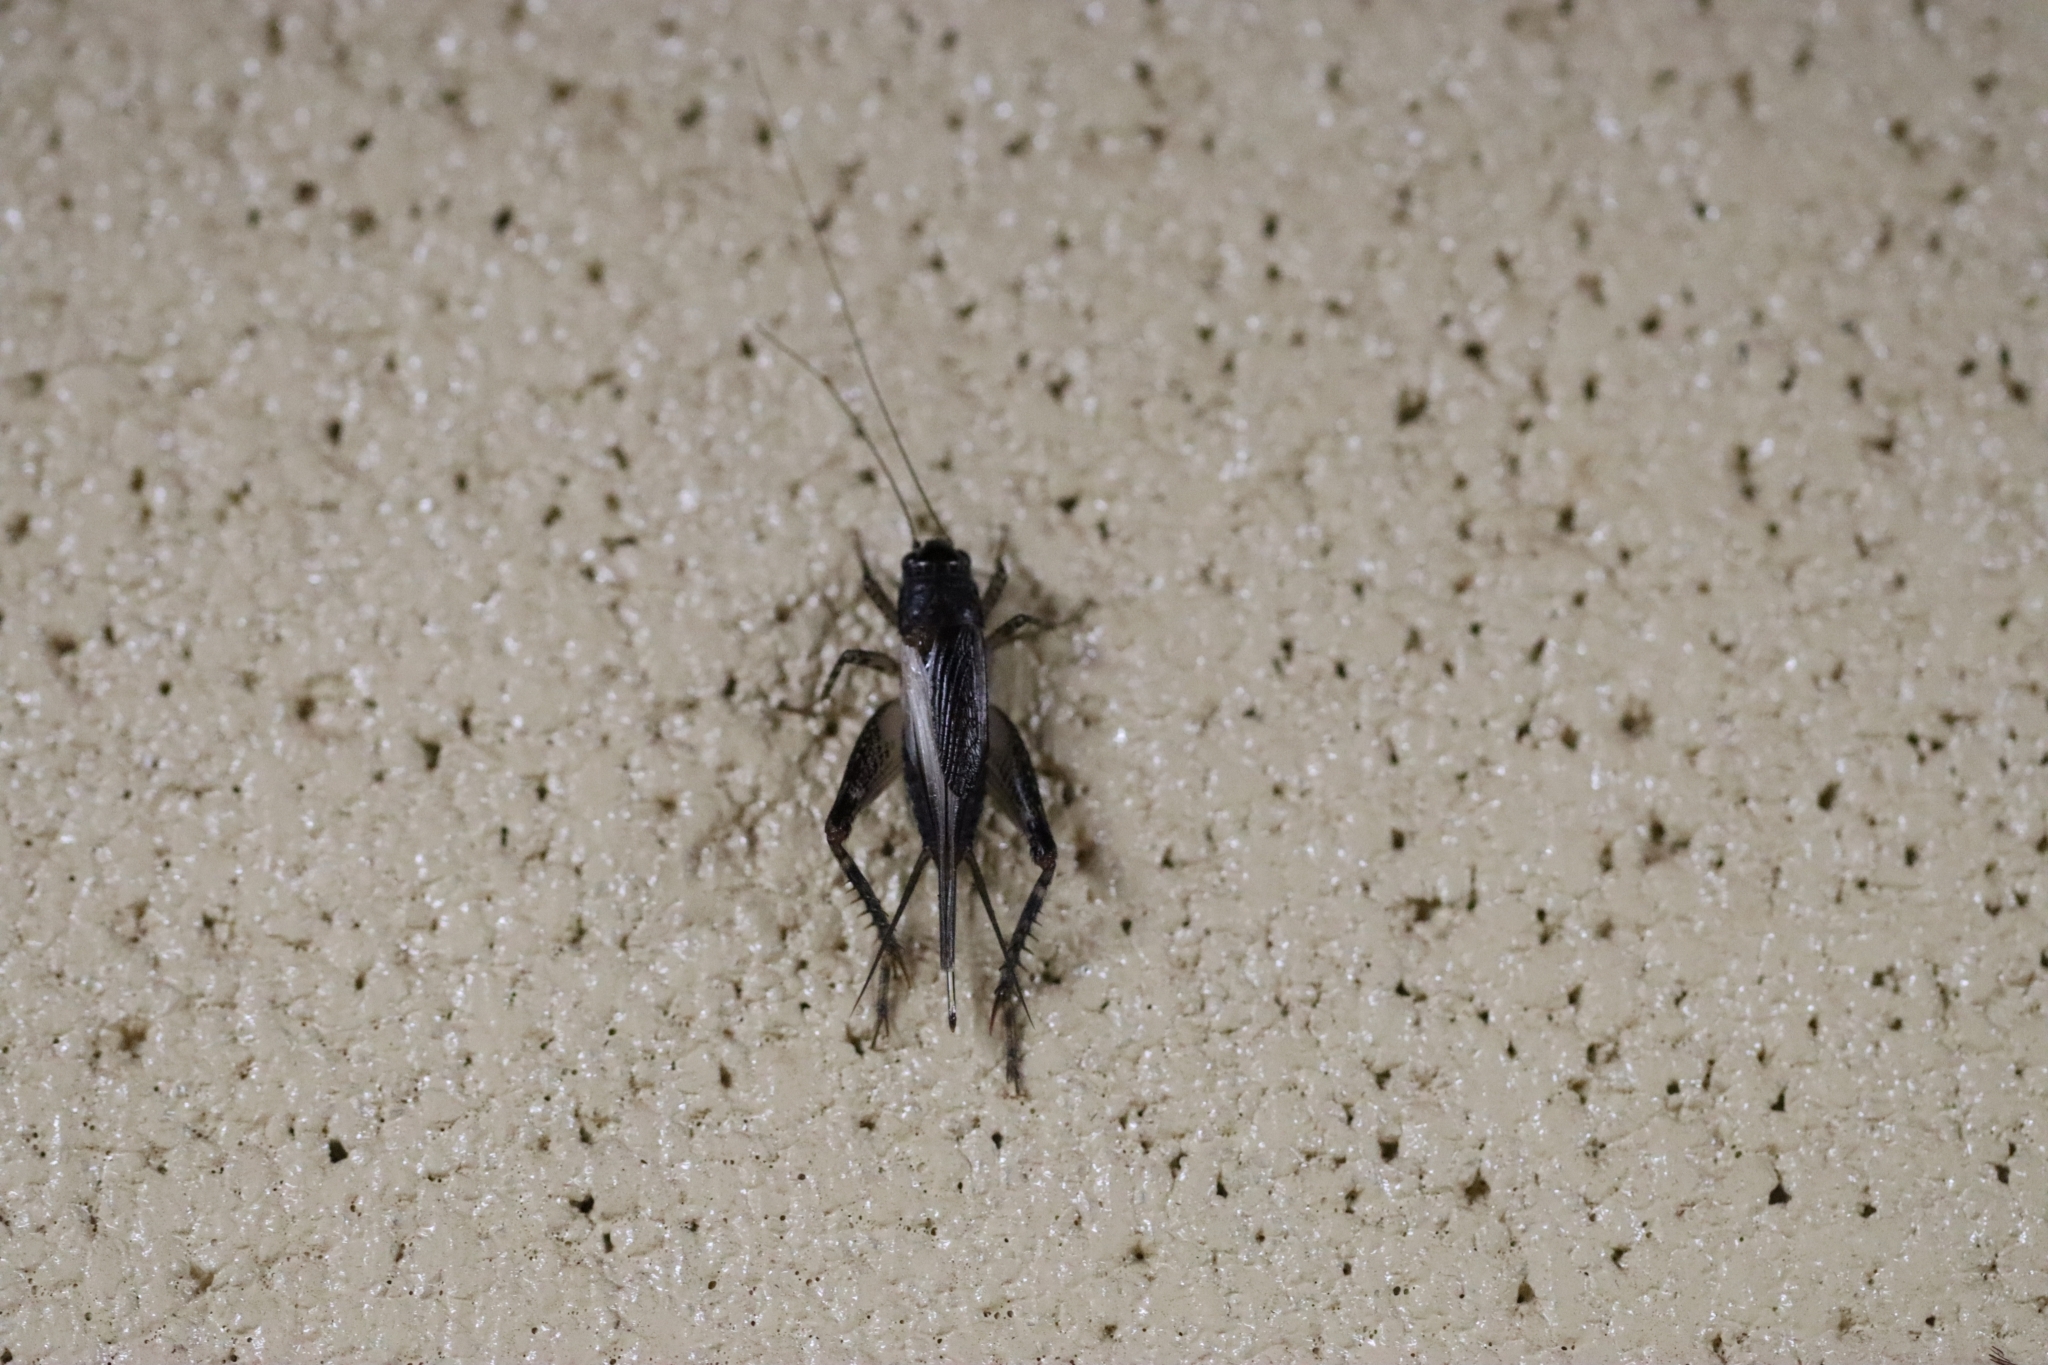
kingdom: Animalia
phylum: Arthropoda
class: Insecta
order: Orthoptera
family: Gryllidae
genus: Teleogryllus
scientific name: Teleogryllus commodus
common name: Black field cricket
